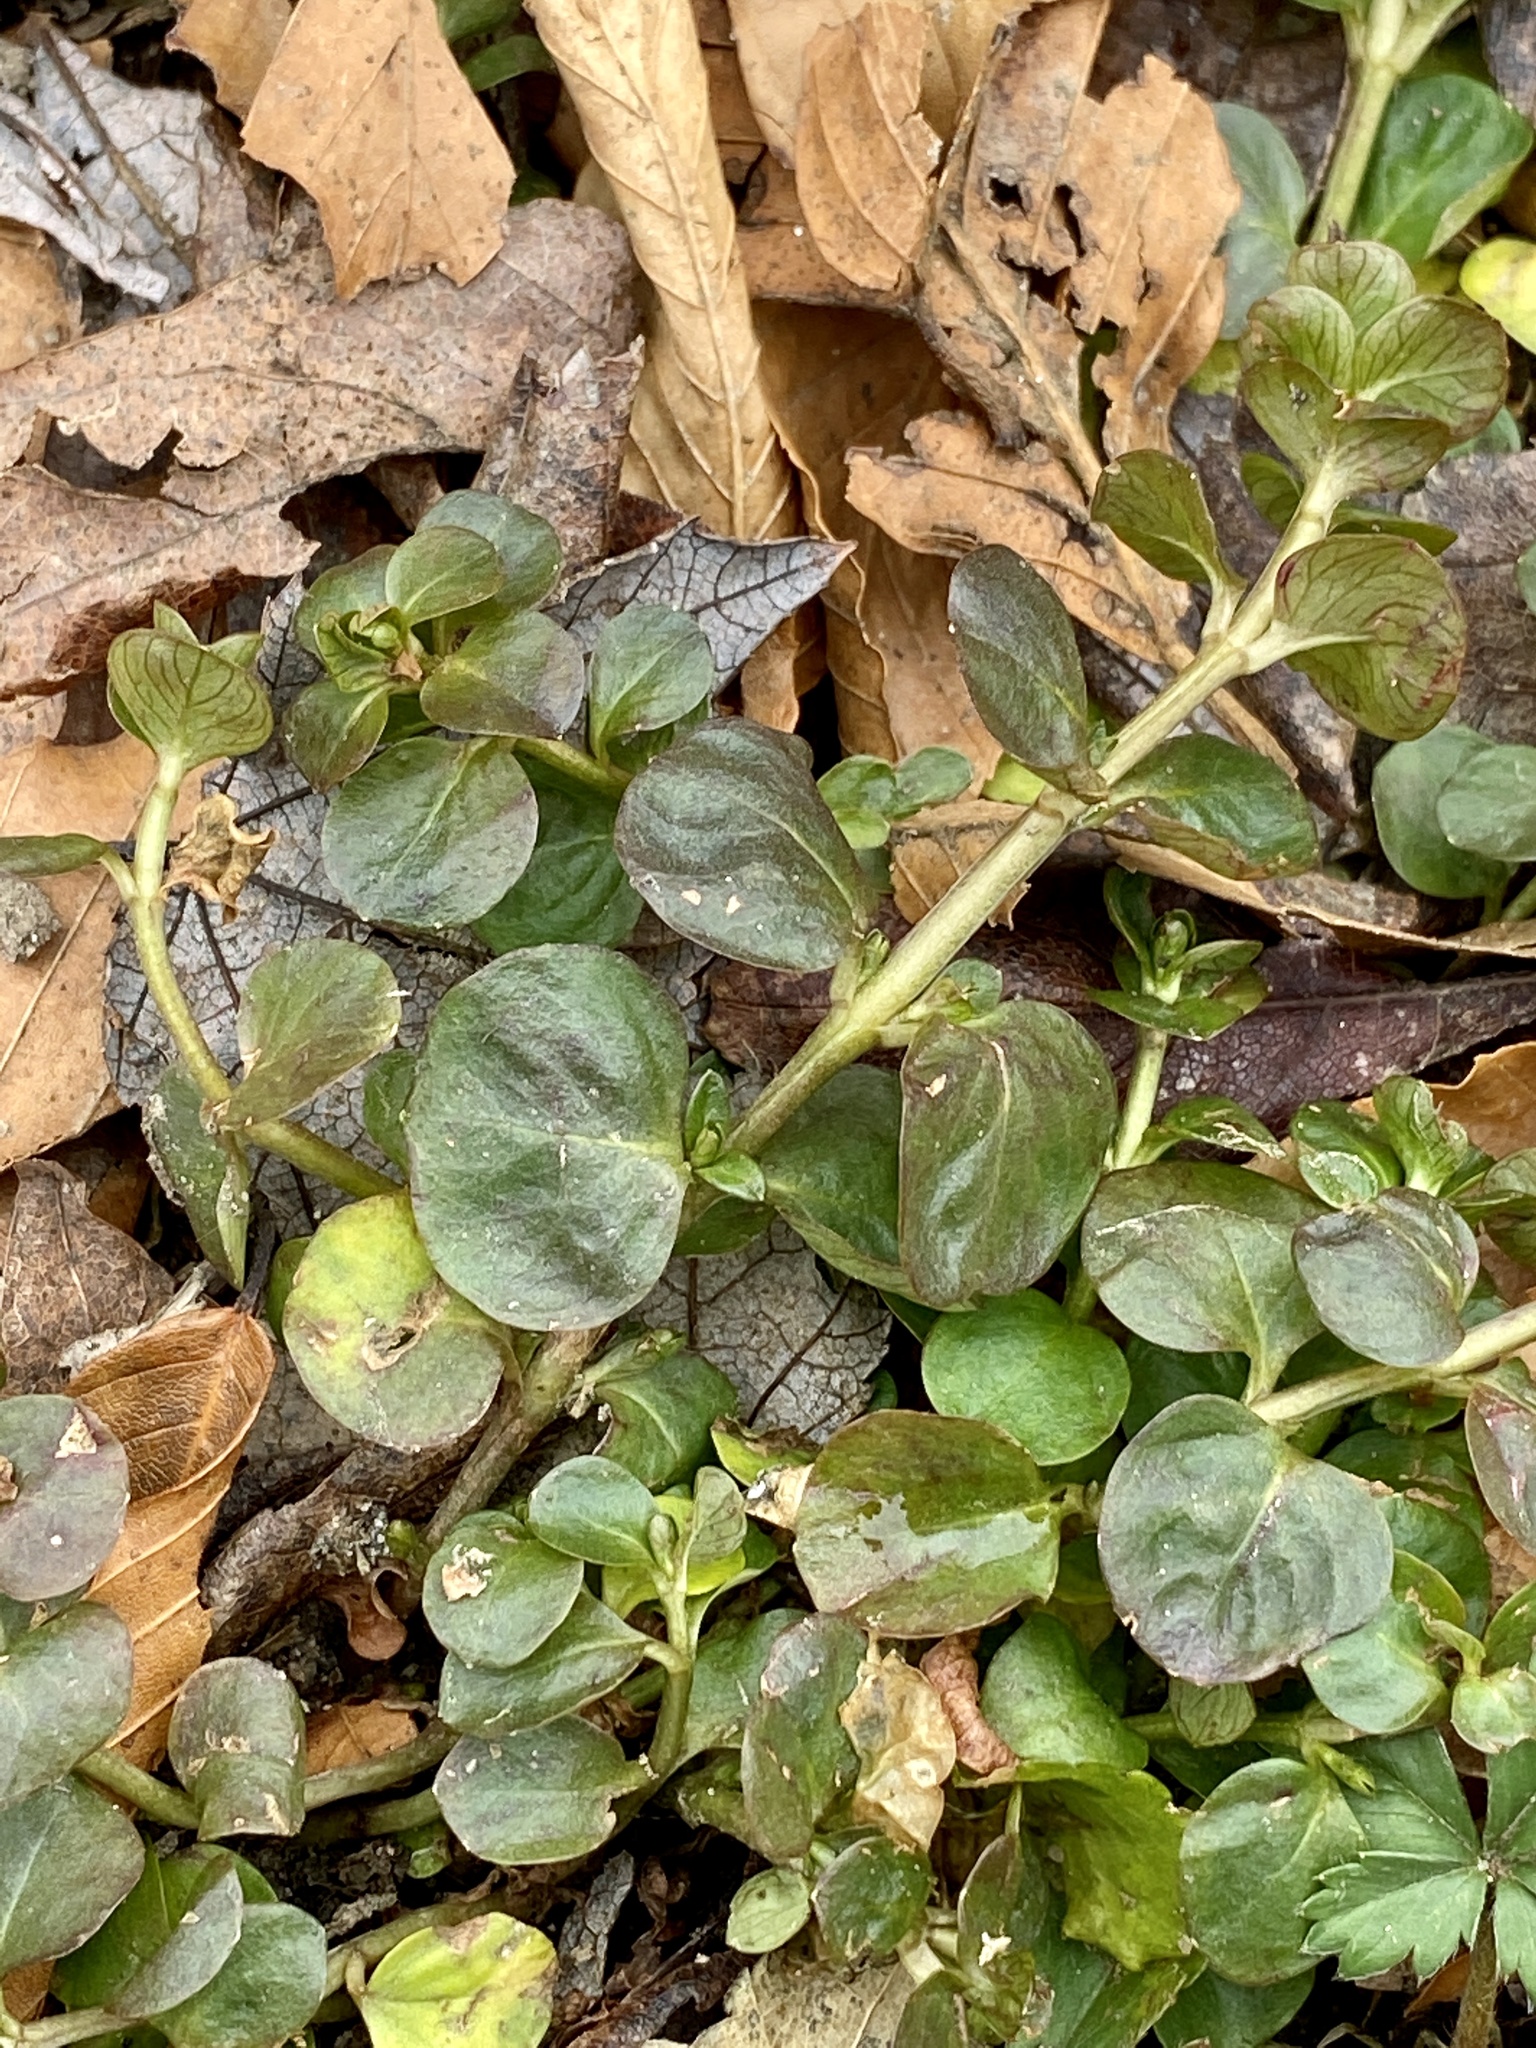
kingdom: Plantae
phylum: Tracheophyta
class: Magnoliopsida
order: Ericales
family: Primulaceae
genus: Lysimachia
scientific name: Lysimachia nummularia
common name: Moneywort
